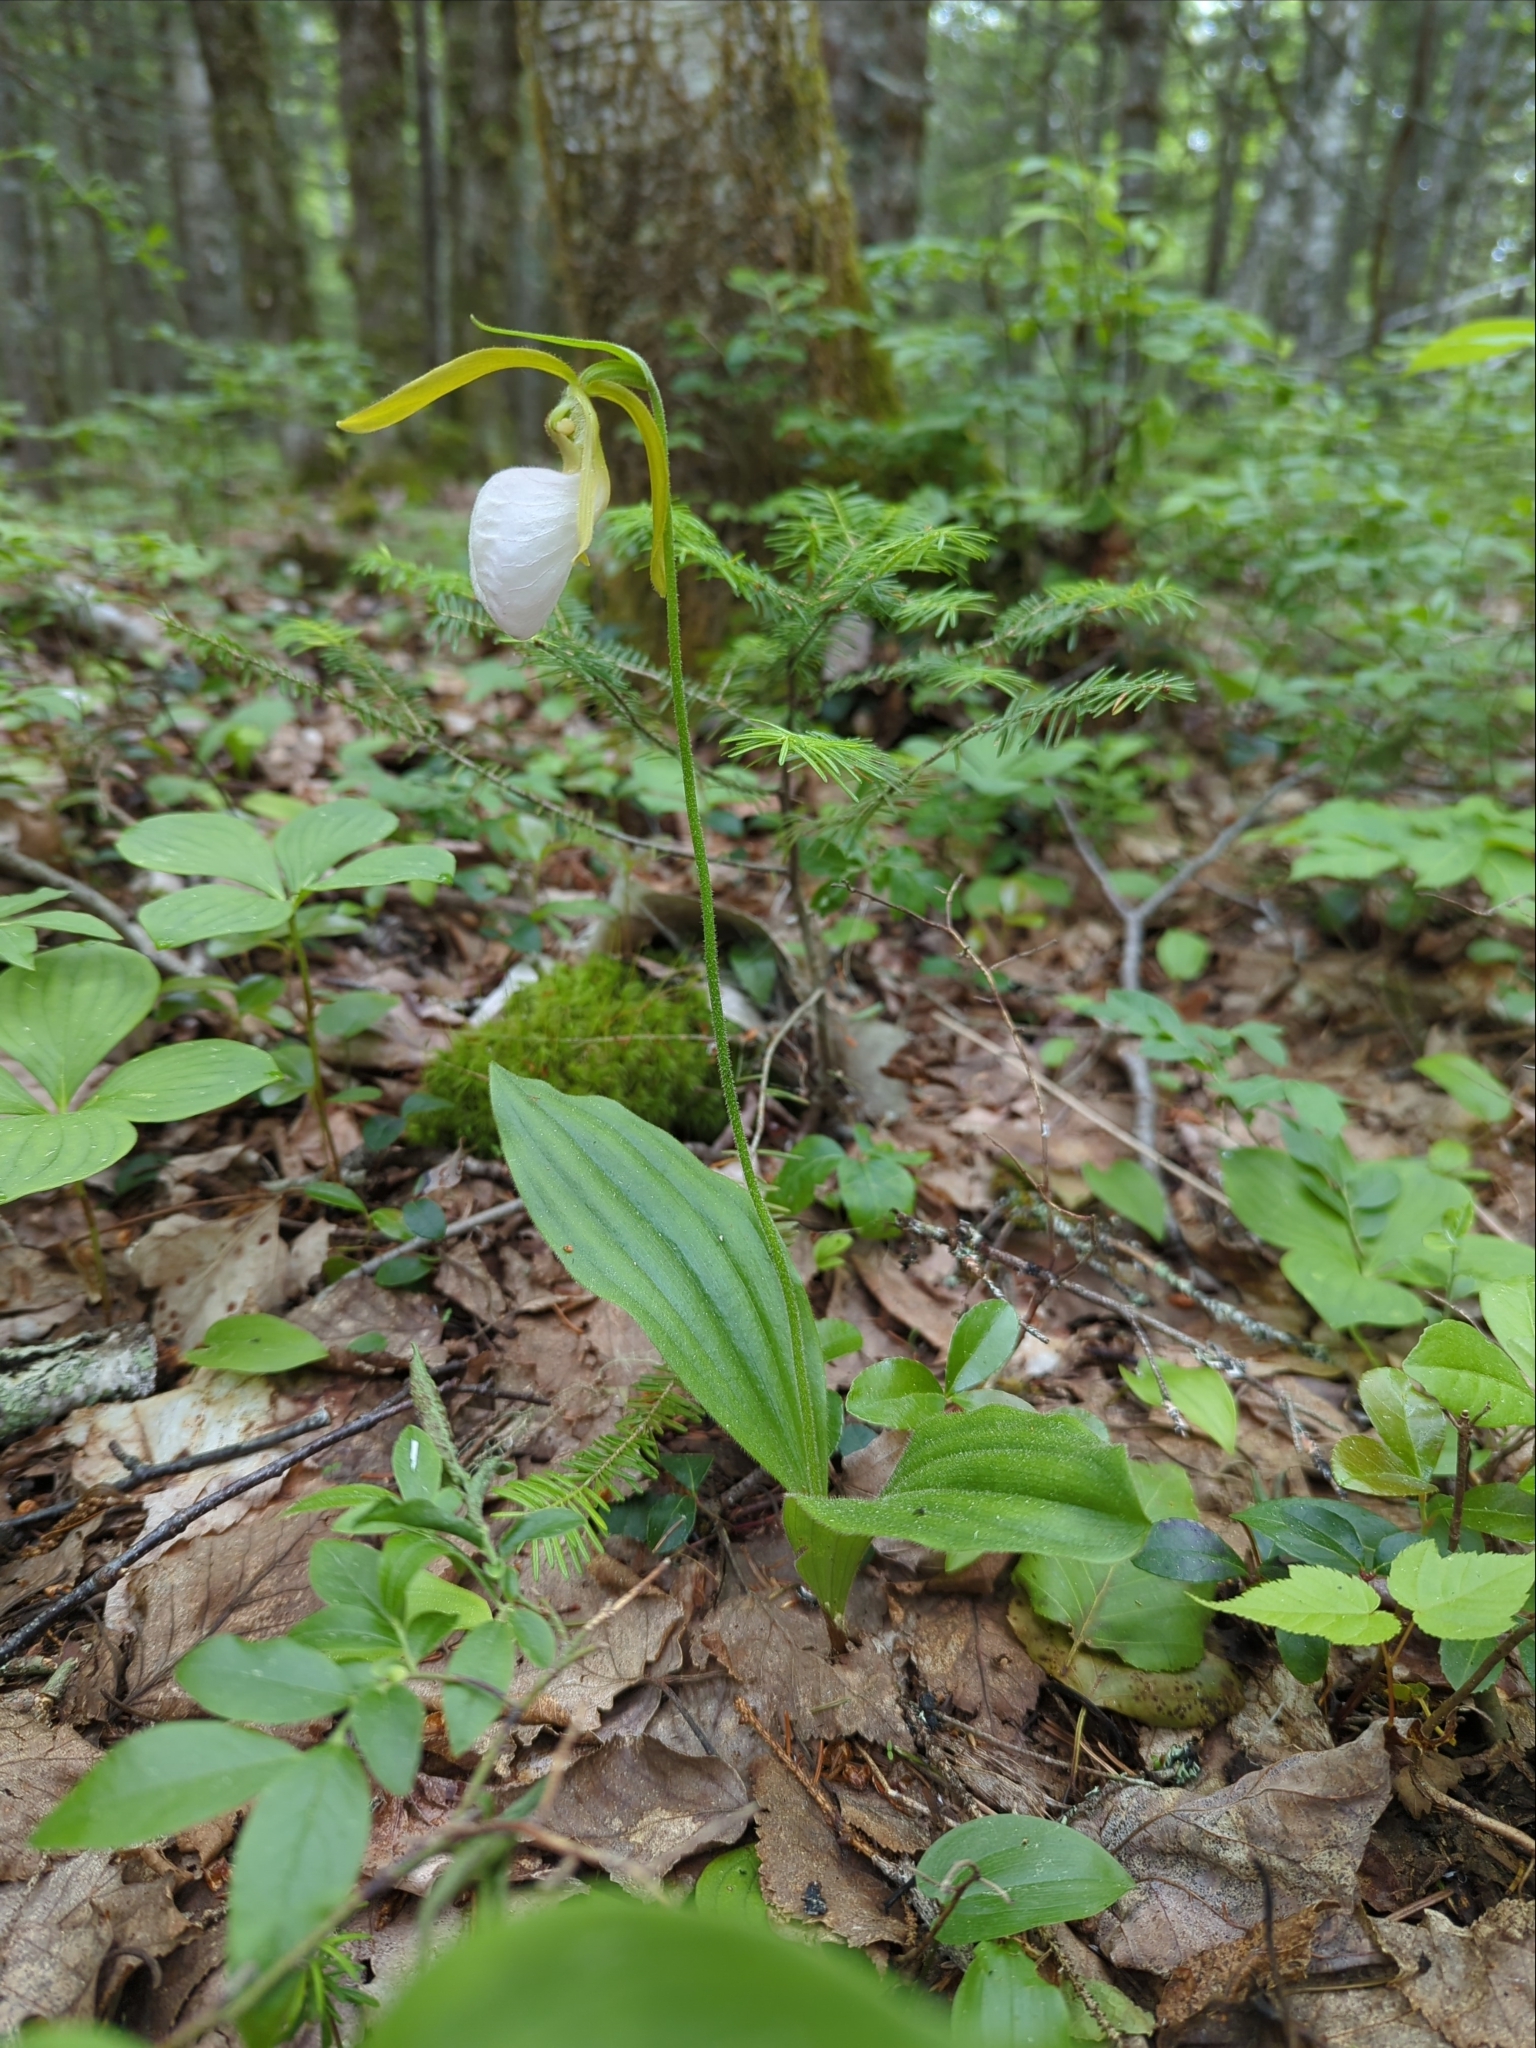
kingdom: Plantae
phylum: Tracheophyta
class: Liliopsida
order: Asparagales
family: Orchidaceae
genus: Cypripedium
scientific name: Cypripedium acaule
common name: Pink lady's-slipper
